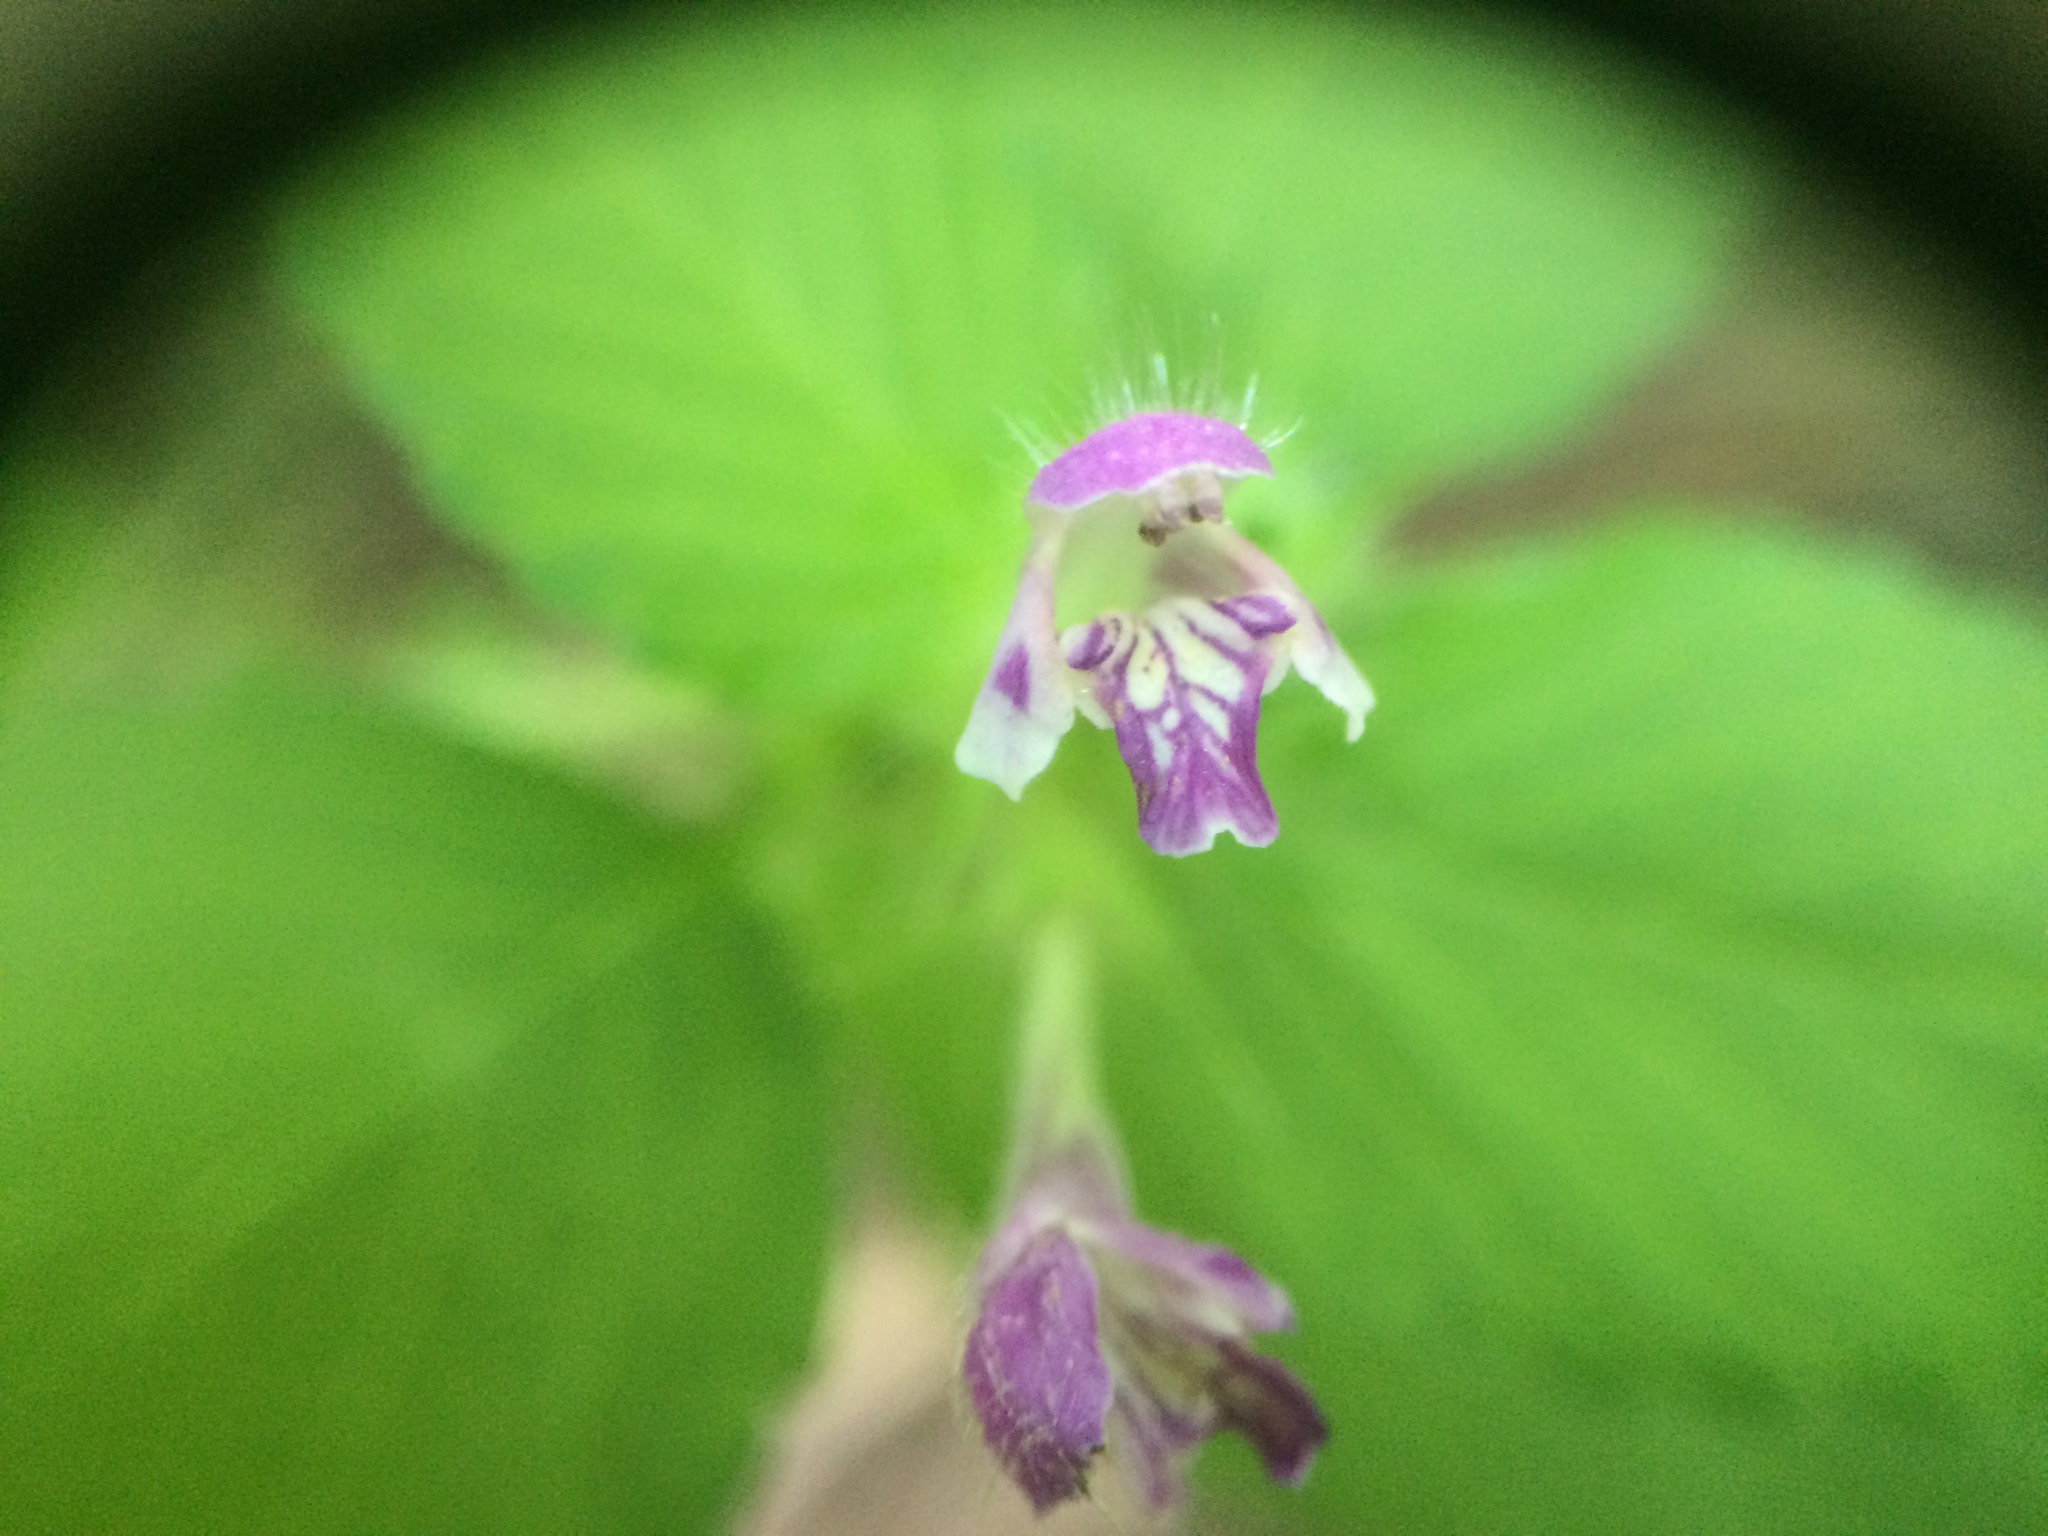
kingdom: Plantae
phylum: Tracheophyta
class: Magnoliopsida
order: Lamiales
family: Lamiaceae
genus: Galeopsis
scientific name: Galeopsis bifida
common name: Bifid hemp-nettle
